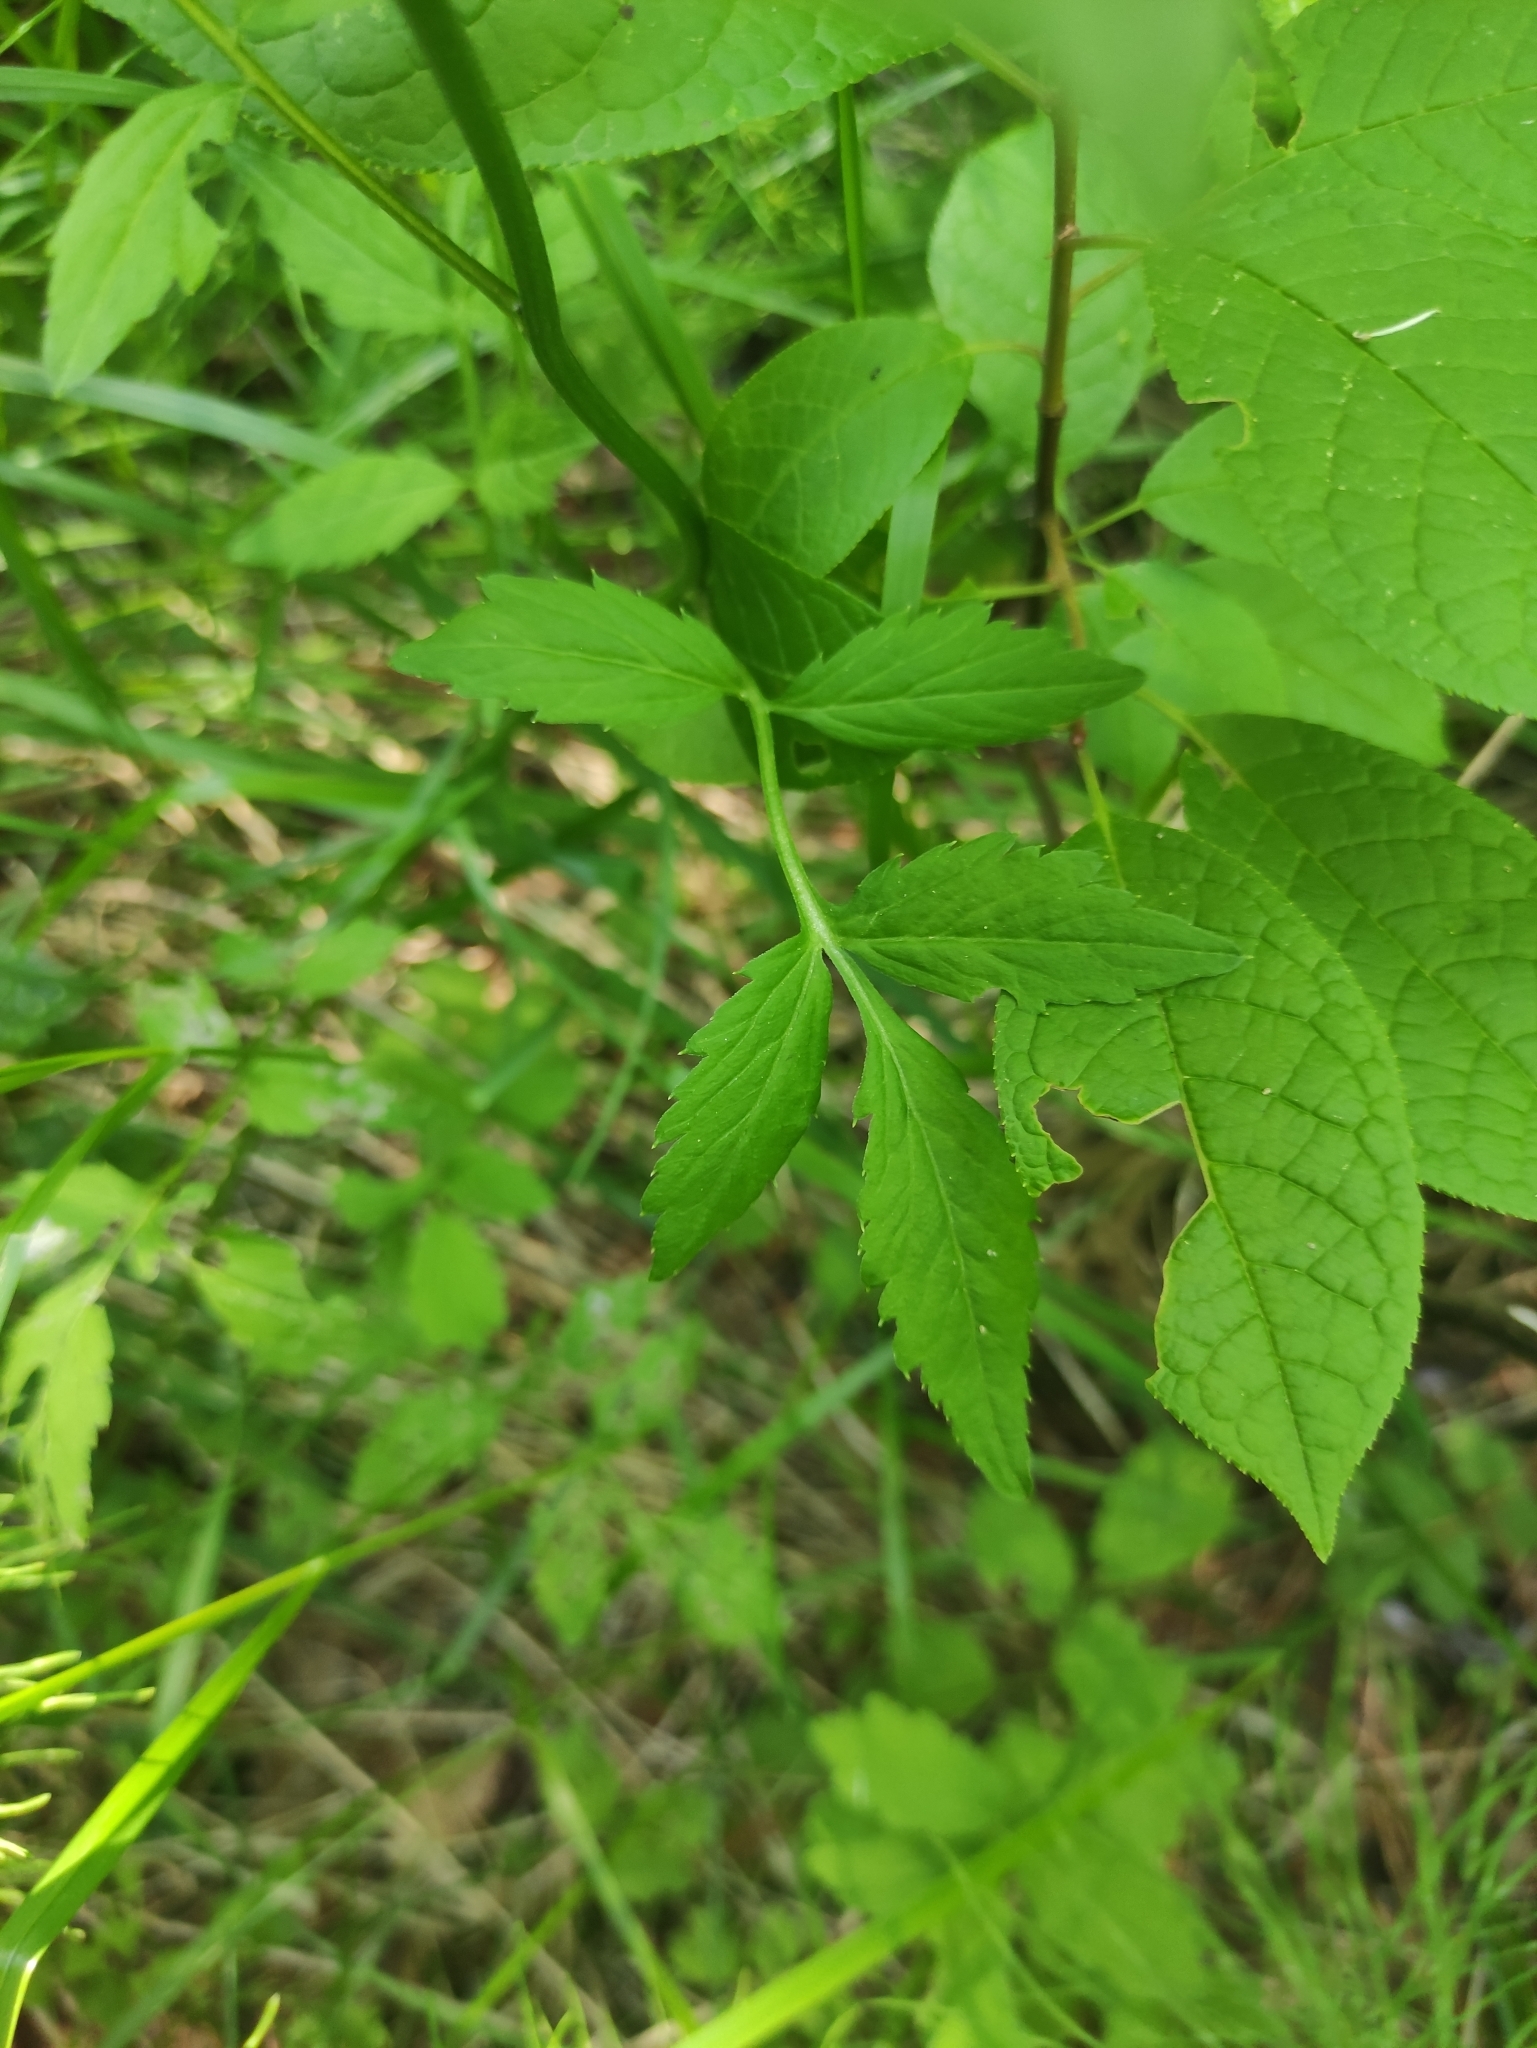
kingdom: Plantae
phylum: Tracheophyta
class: Magnoliopsida
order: Brassicales
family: Brassicaceae
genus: Cardamine
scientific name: Cardamine macrophylla
